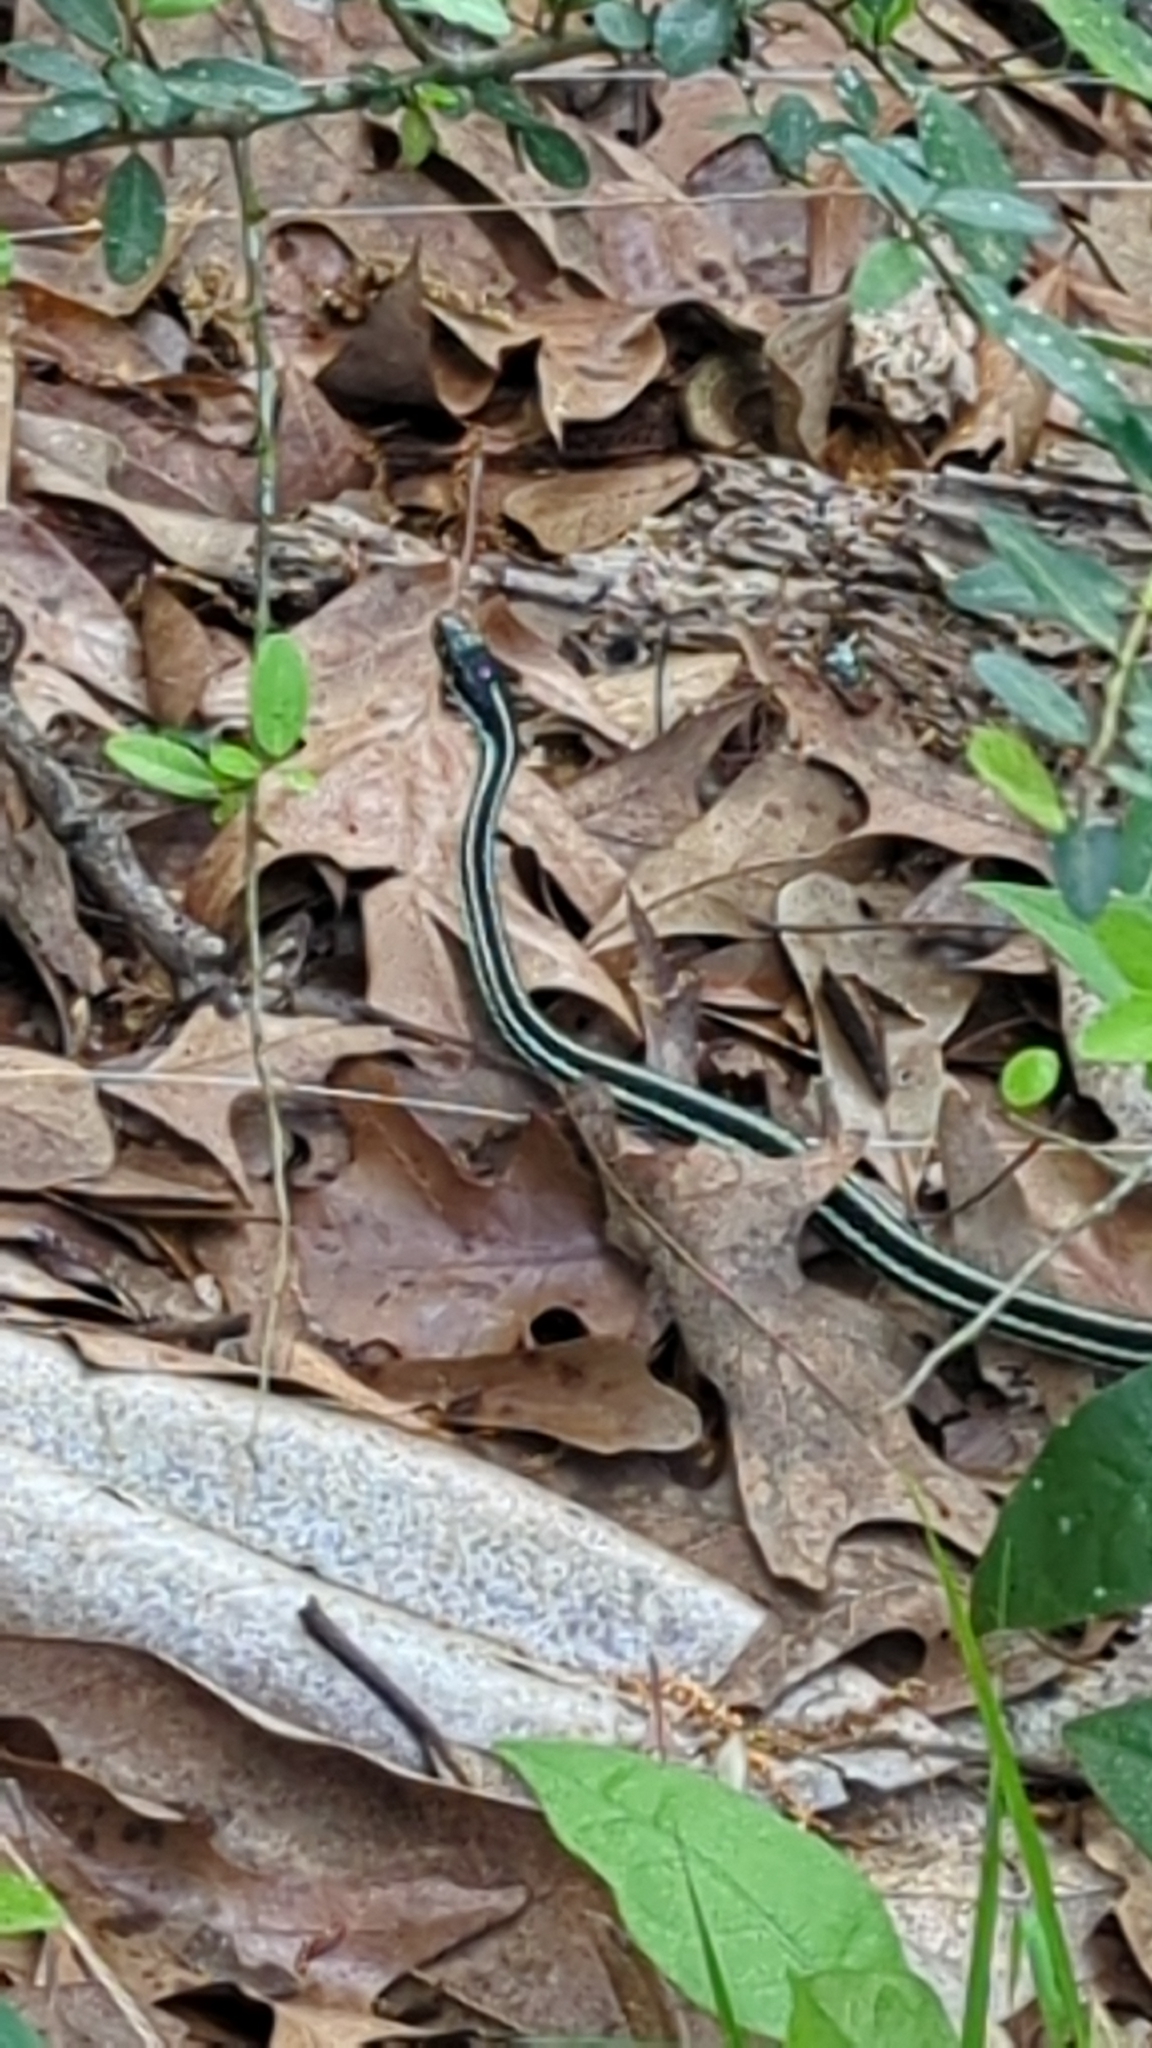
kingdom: Animalia
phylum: Chordata
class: Squamata
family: Colubridae
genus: Thamnophis
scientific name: Thamnophis proximus
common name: Western ribbon snake
